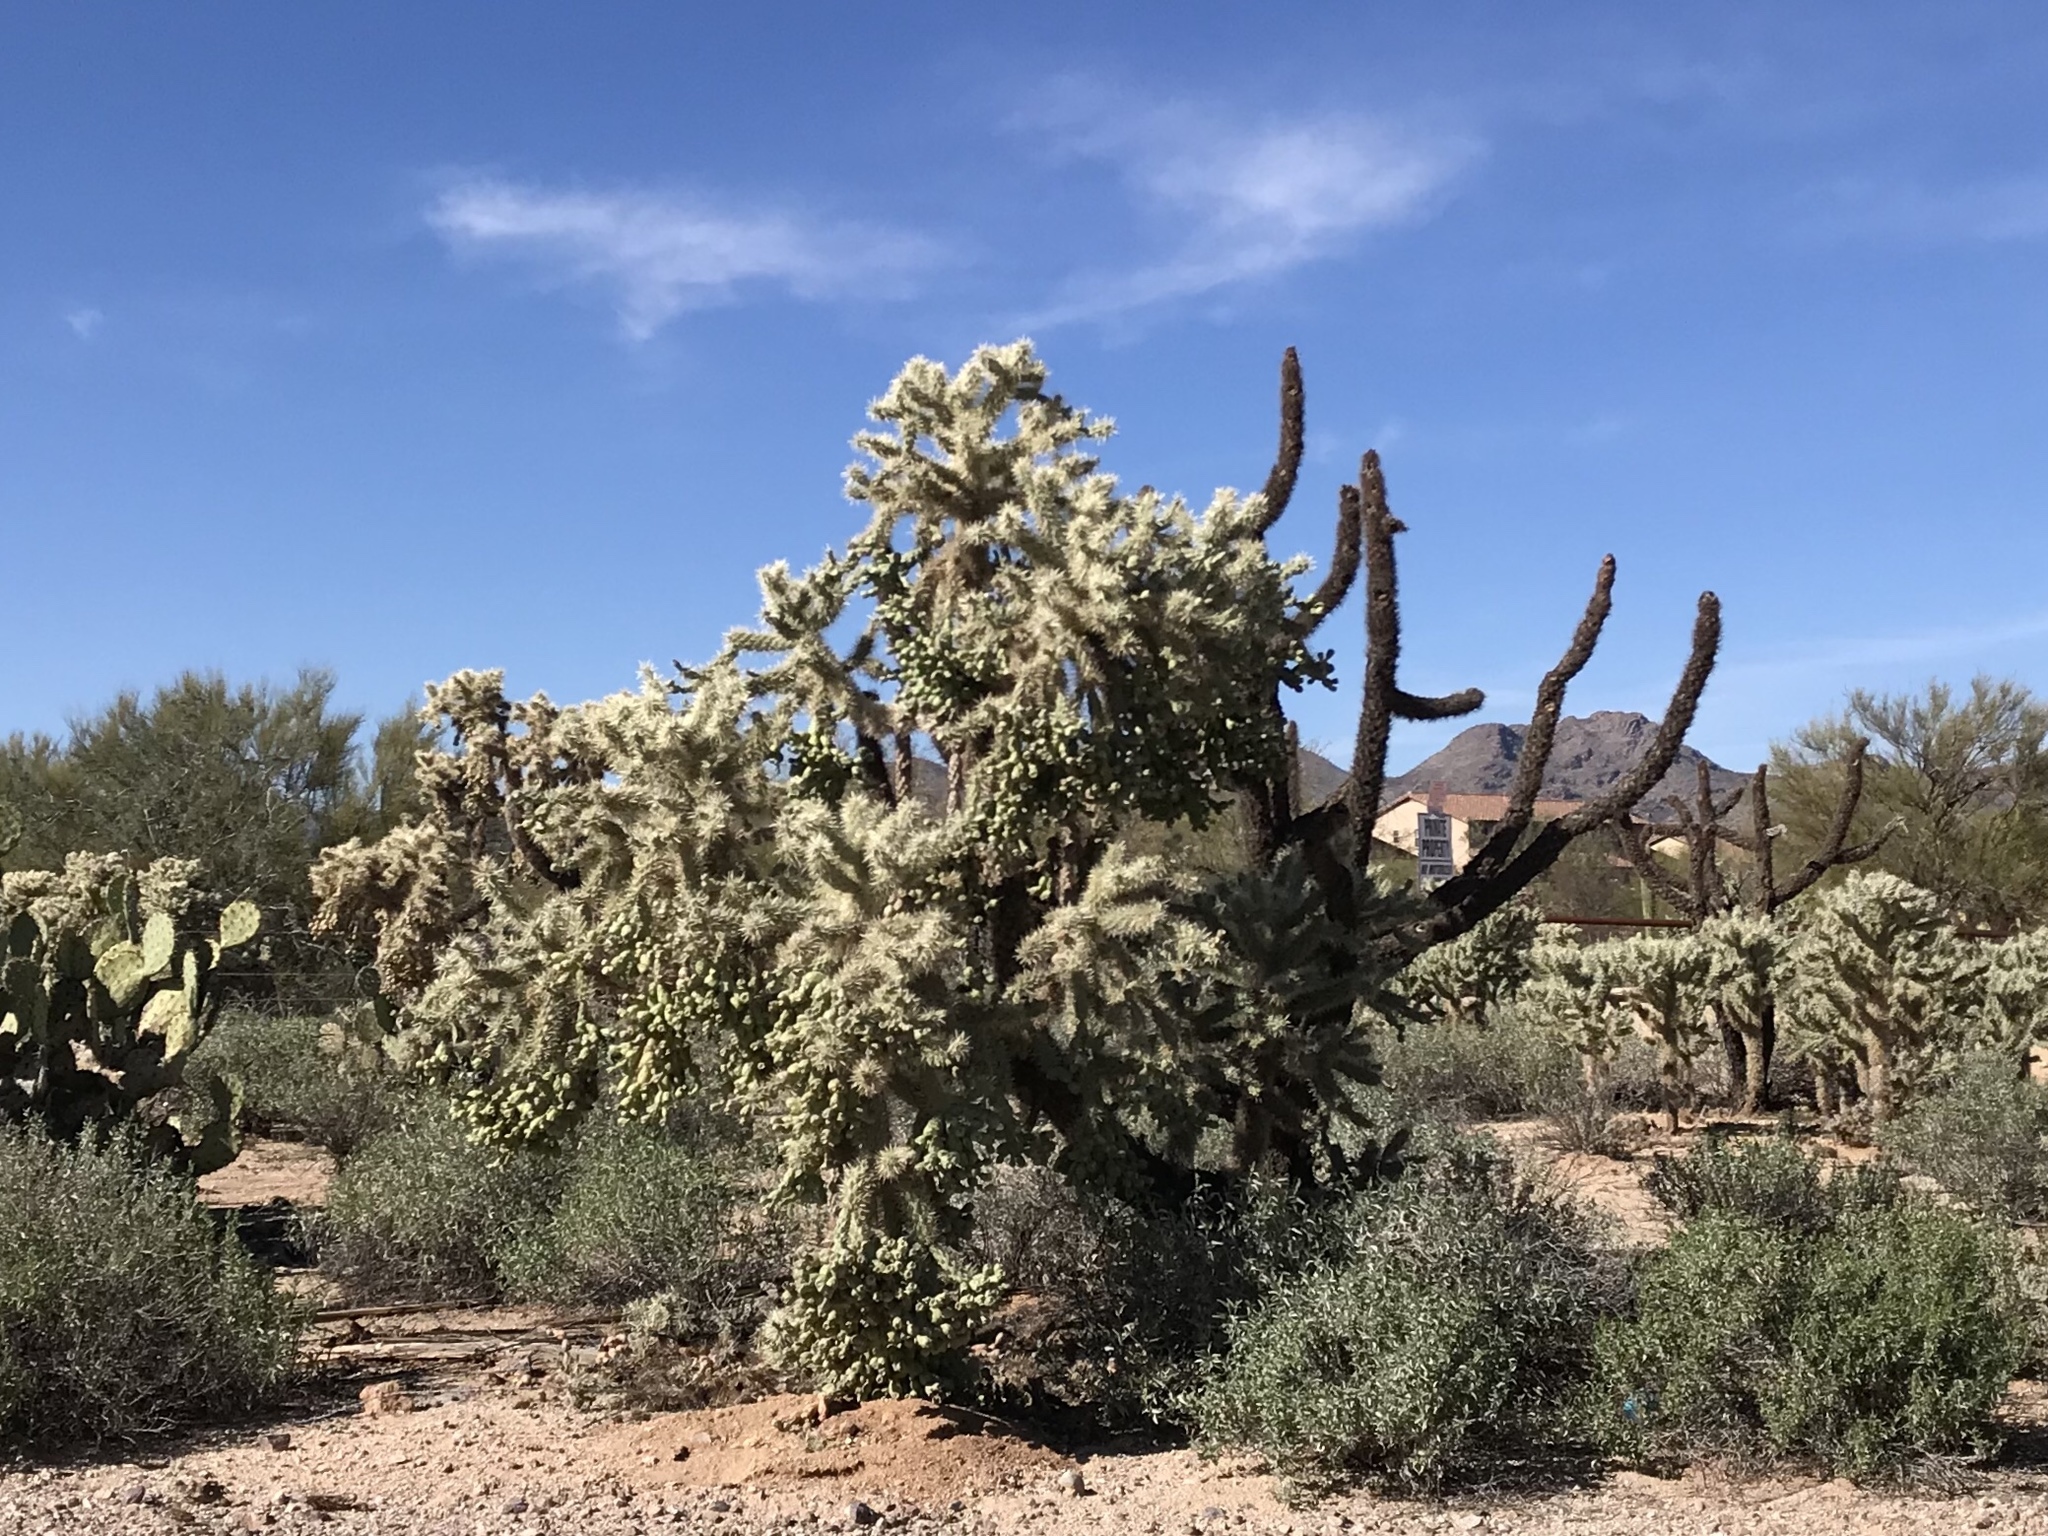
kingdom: Plantae
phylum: Tracheophyta
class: Magnoliopsida
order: Caryophyllales
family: Cactaceae
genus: Cylindropuntia
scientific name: Cylindropuntia fulgida
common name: Jumping cholla
